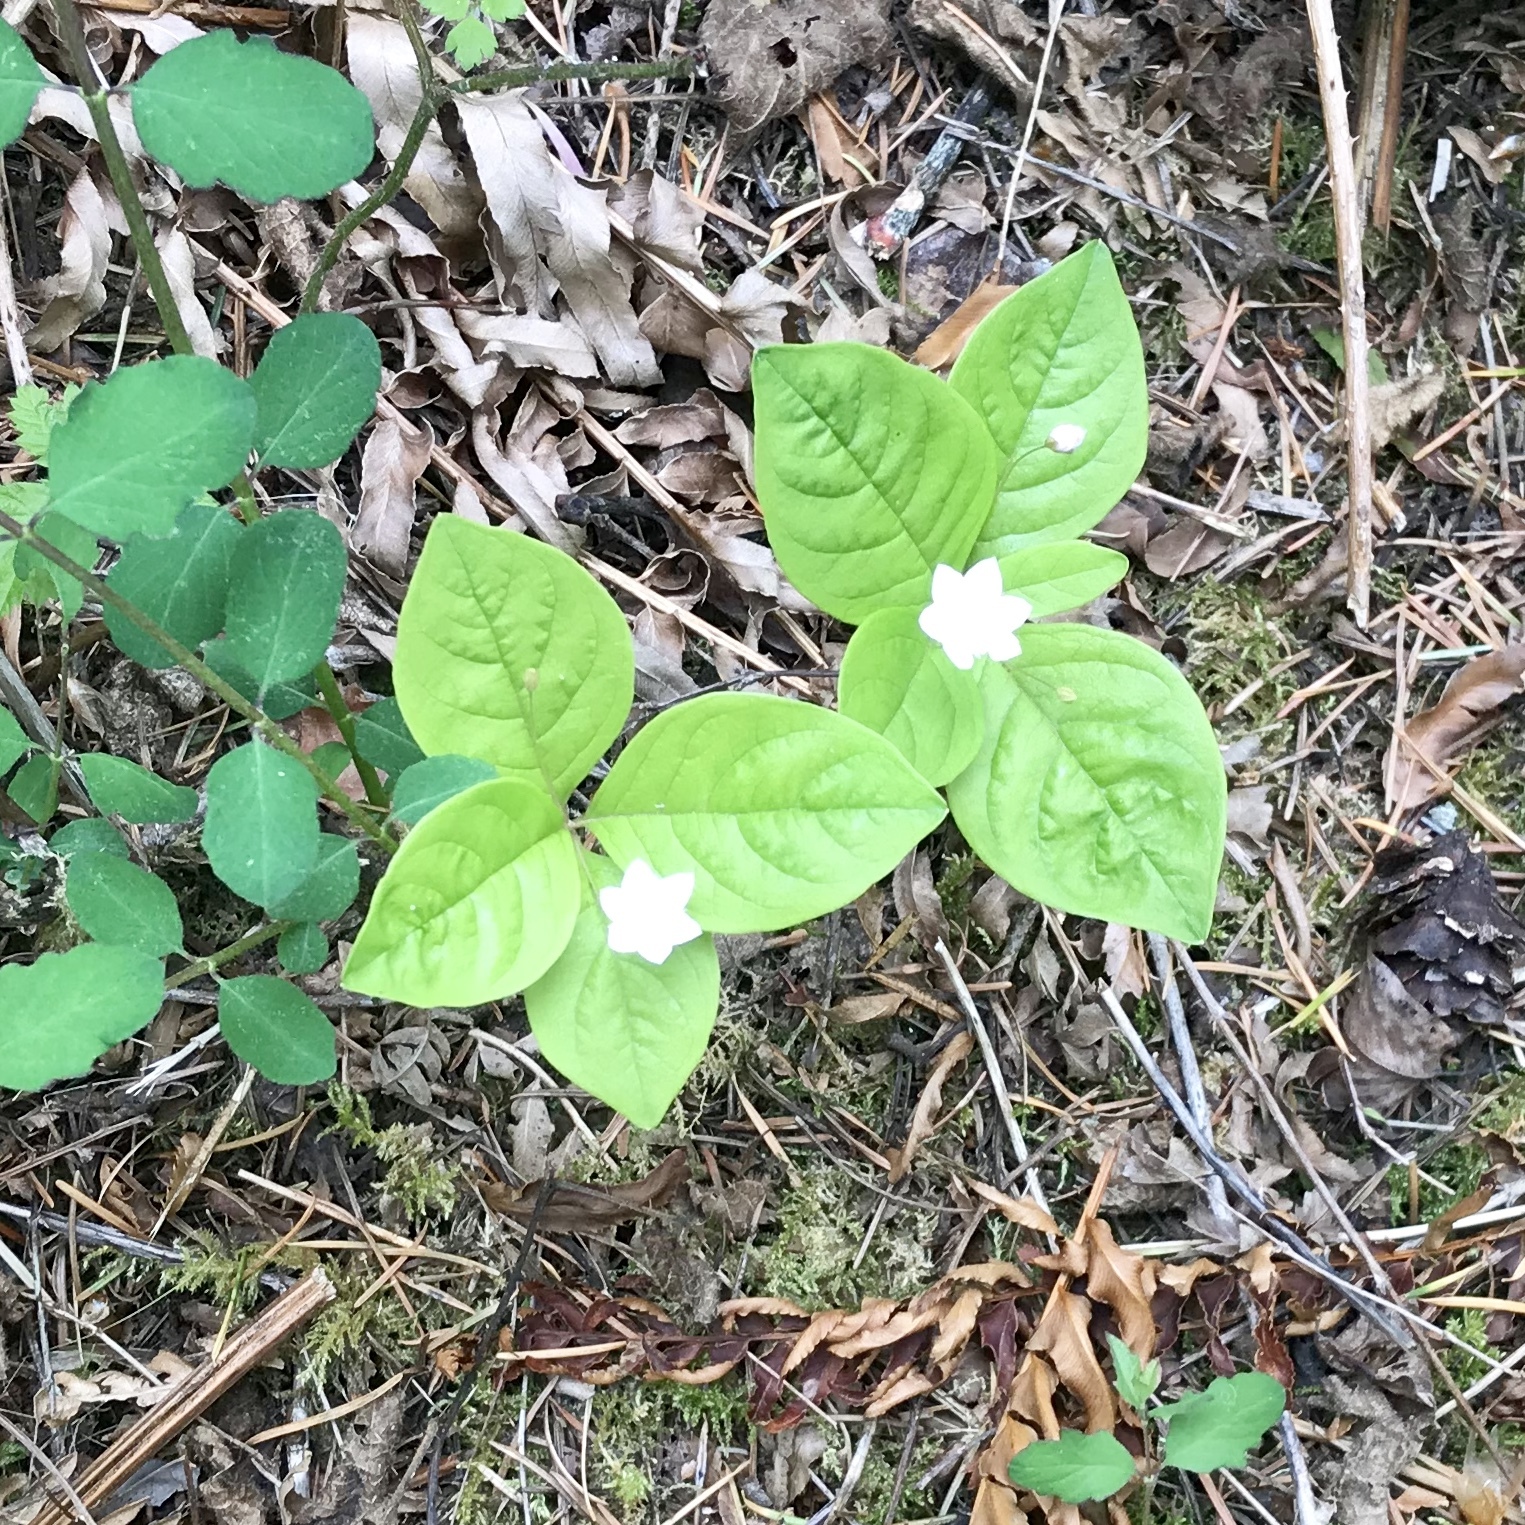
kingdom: Plantae
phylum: Tracheophyta
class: Magnoliopsida
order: Ericales
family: Primulaceae
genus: Lysimachia
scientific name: Lysimachia latifolia
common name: Pacific starflower
